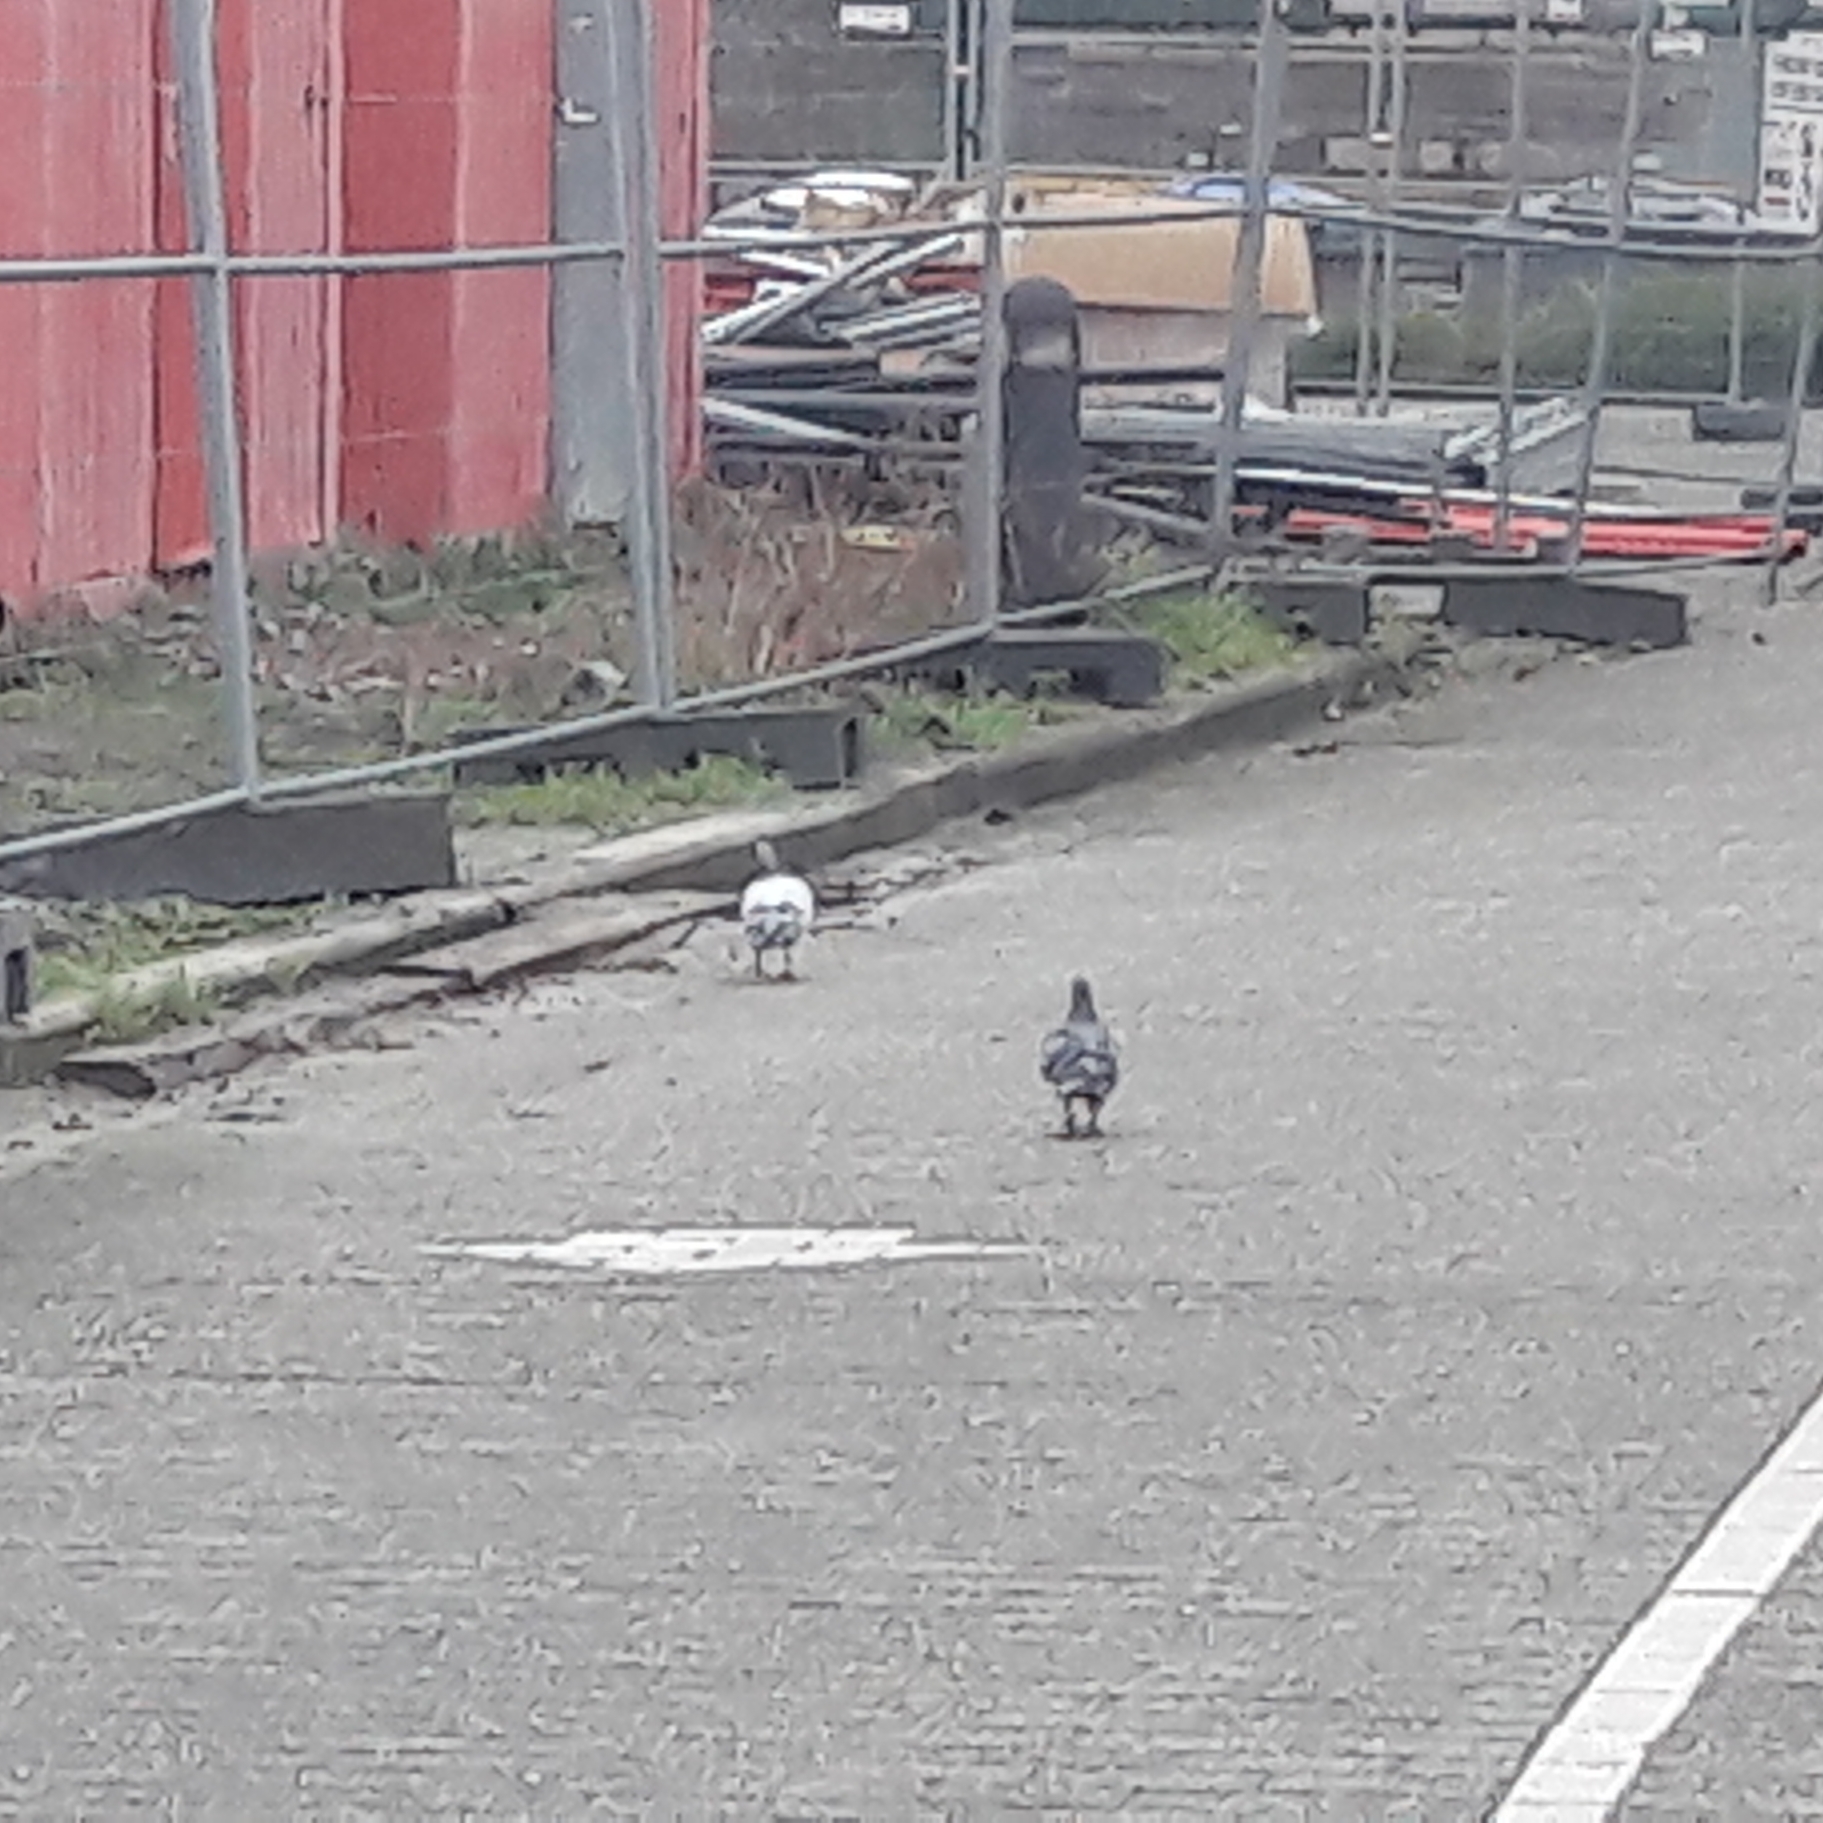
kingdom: Animalia
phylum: Chordata
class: Aves
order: Columbiformes
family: Columbidae
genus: Columba
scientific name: Columba livia
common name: Rock pigeon
